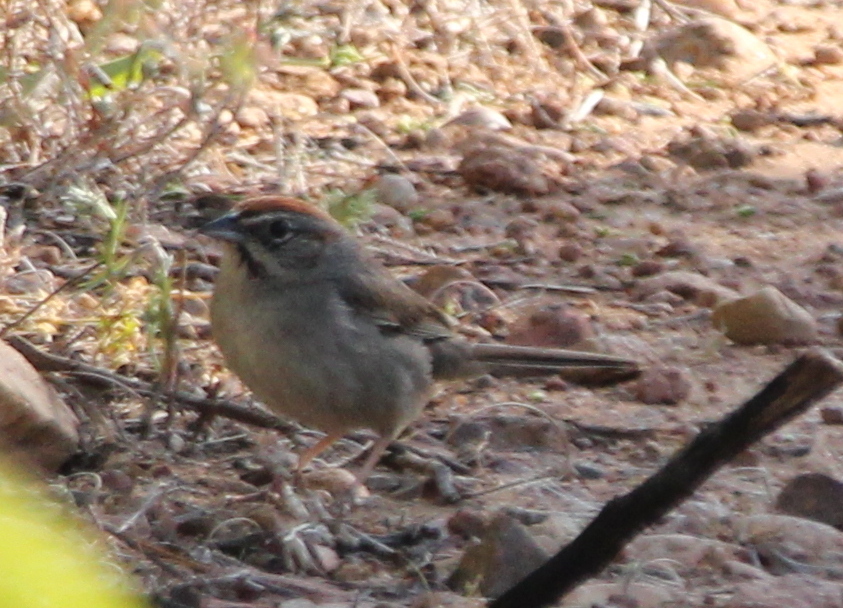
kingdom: Animalia
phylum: Chordata
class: Aves
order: Passeriformes
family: Passerellidae
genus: Aimophila
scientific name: Aimophila ruficeps
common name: Rufous-crowned sparrow
